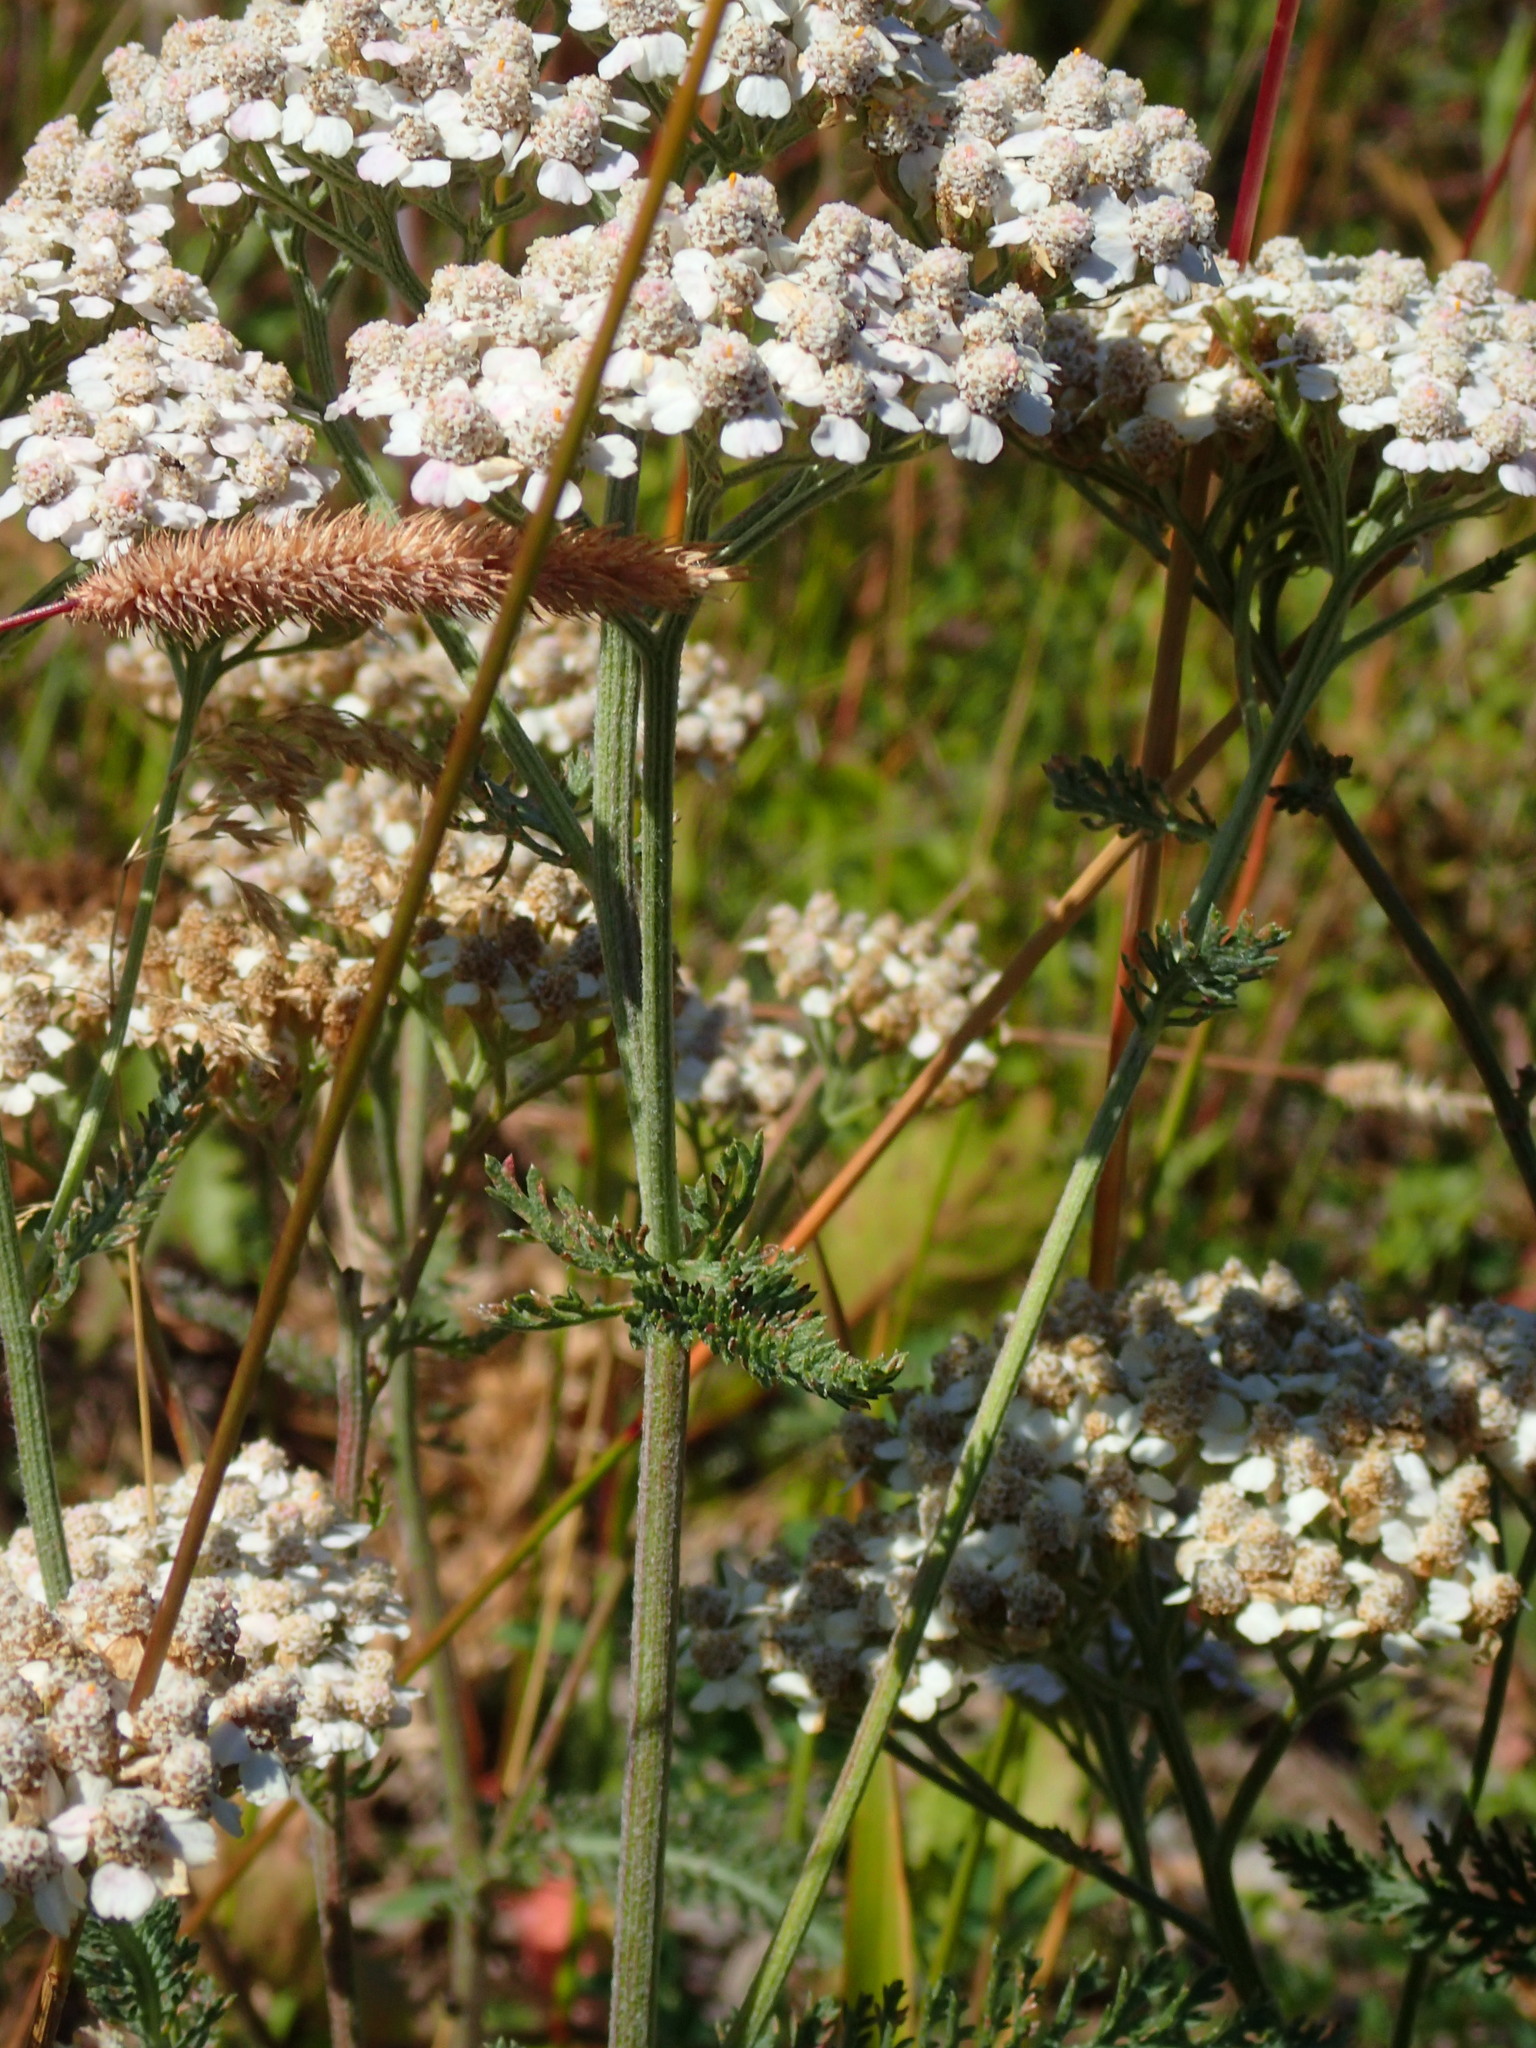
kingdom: Plantae
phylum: Tracheophyta
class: Magnoliopsida
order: Asterales
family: Asteraceae
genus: Achillea
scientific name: Achillea millefolium
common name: Yarrow
